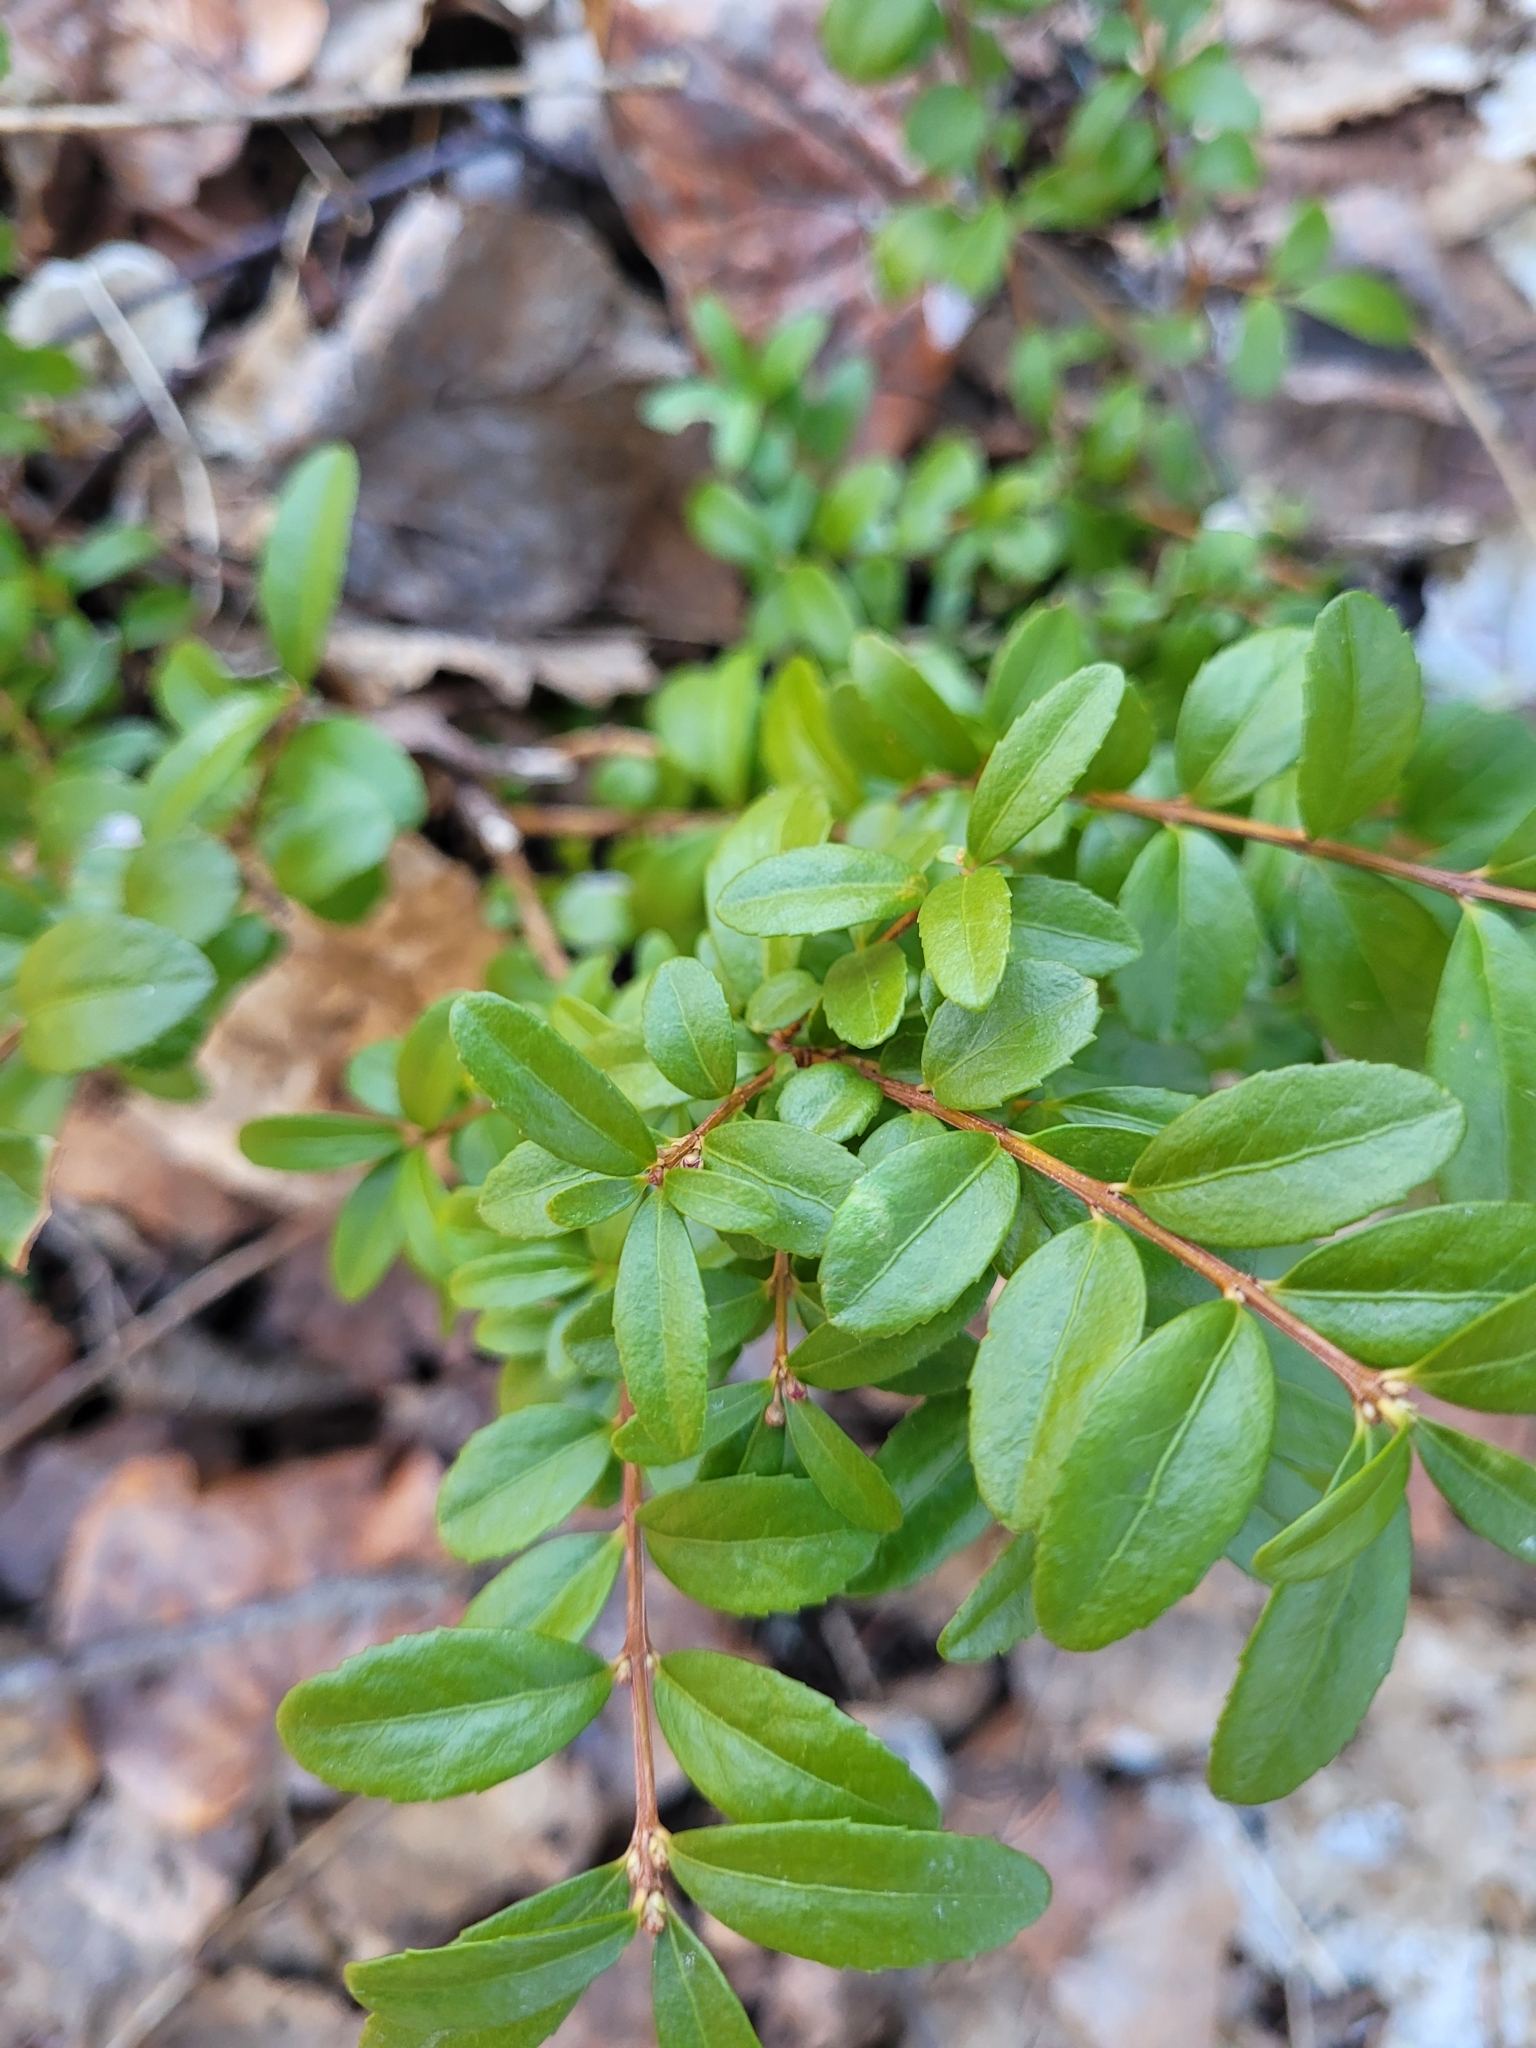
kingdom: Plantae
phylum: Tracheophyta
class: Magnoliopsida
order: Celastrales
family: Celastraceae
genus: Paxistima
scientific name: Paxistima myrsinites
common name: Mountain-lover
